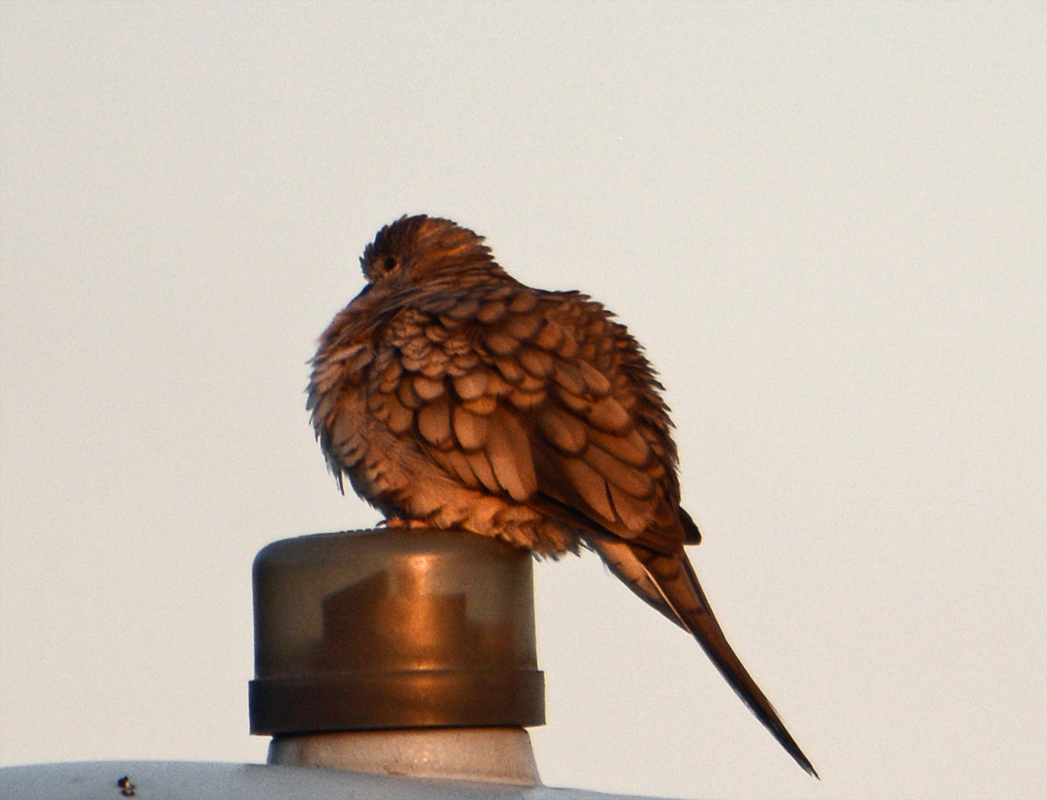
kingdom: Animalia
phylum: Chordata
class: Aves
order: Columbiformes
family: Columbidae
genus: Columbina
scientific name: Columbina inca
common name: Inca dove
